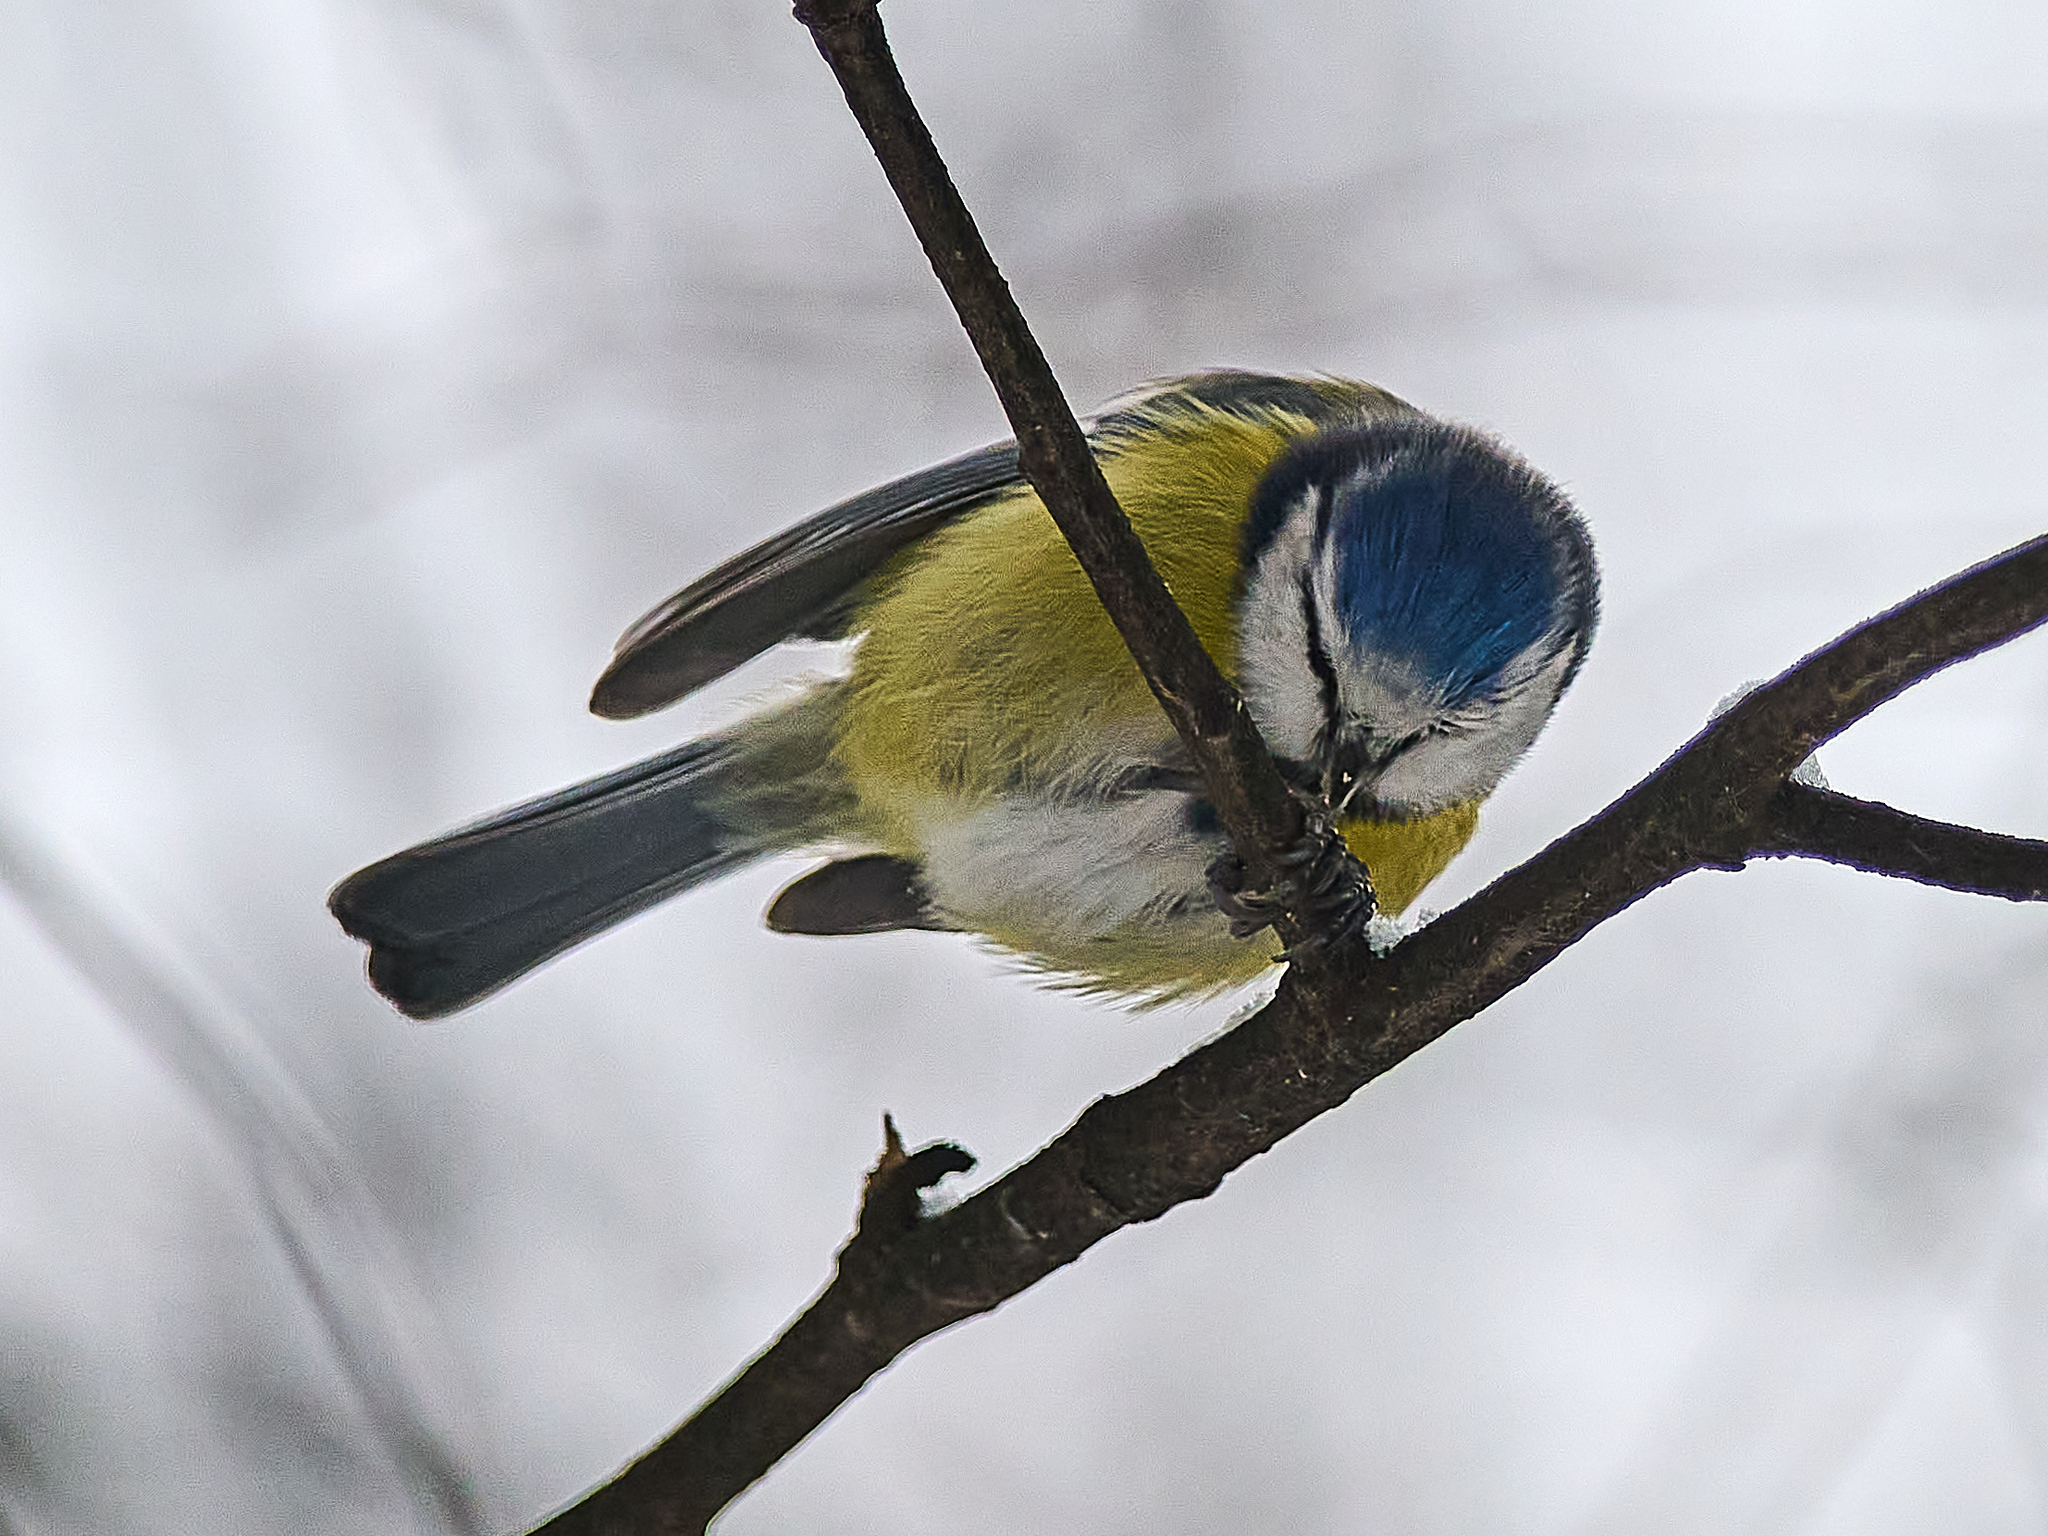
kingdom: Animalia
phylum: Chordata
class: Aves
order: Passeriformes
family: Paridae
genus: Cyanistes
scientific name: Cyanistes caeruleus
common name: Eurasian blue tit
